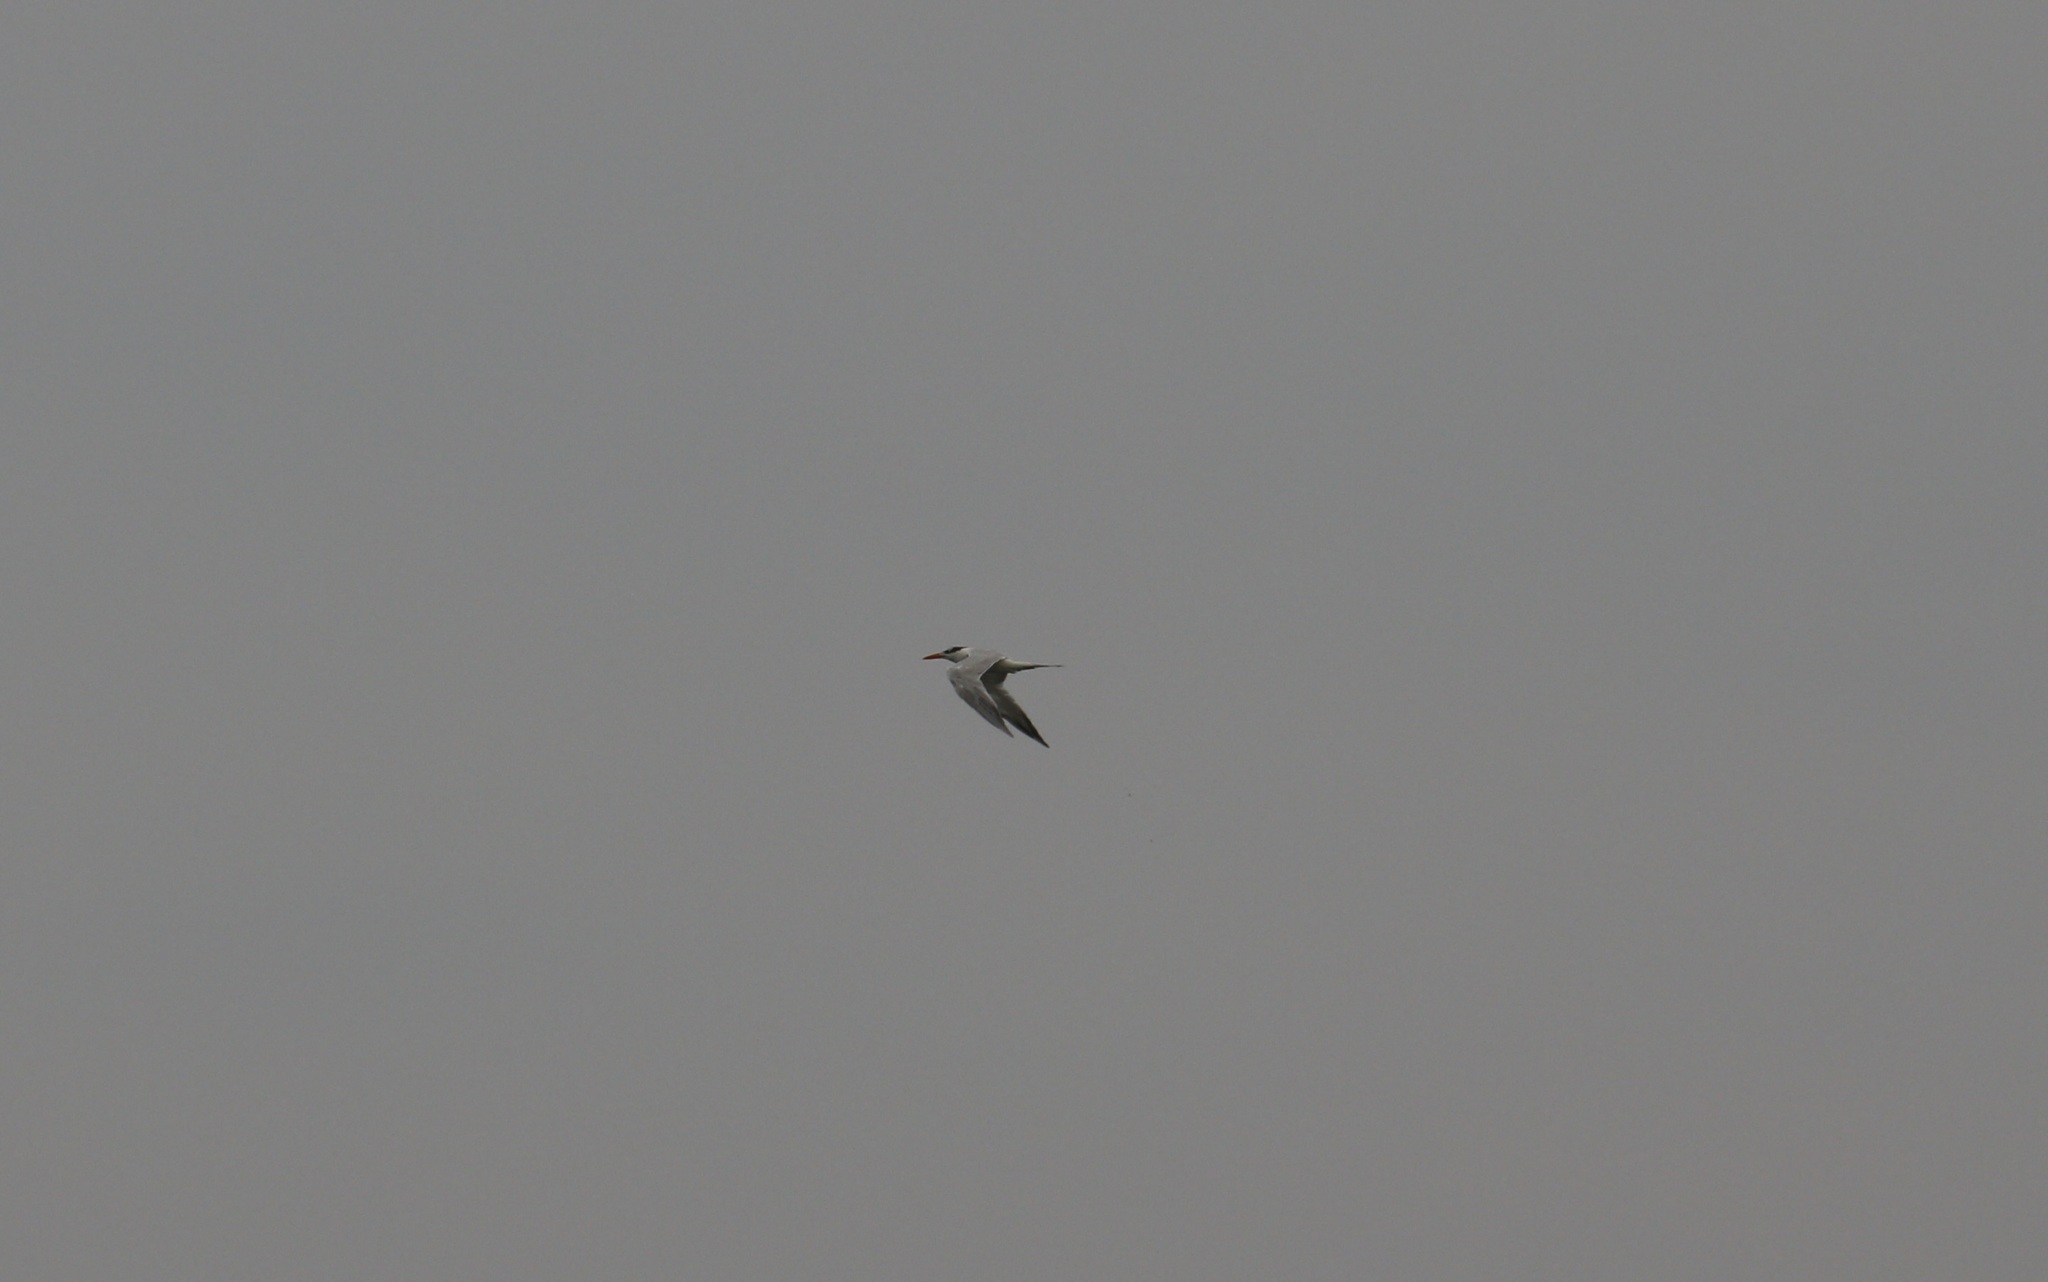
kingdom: Animalia
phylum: Chordata
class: Aves
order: Charadriiformes
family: Laridae
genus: Thalasseus
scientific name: Thalasseus maximus
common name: Royal tern
